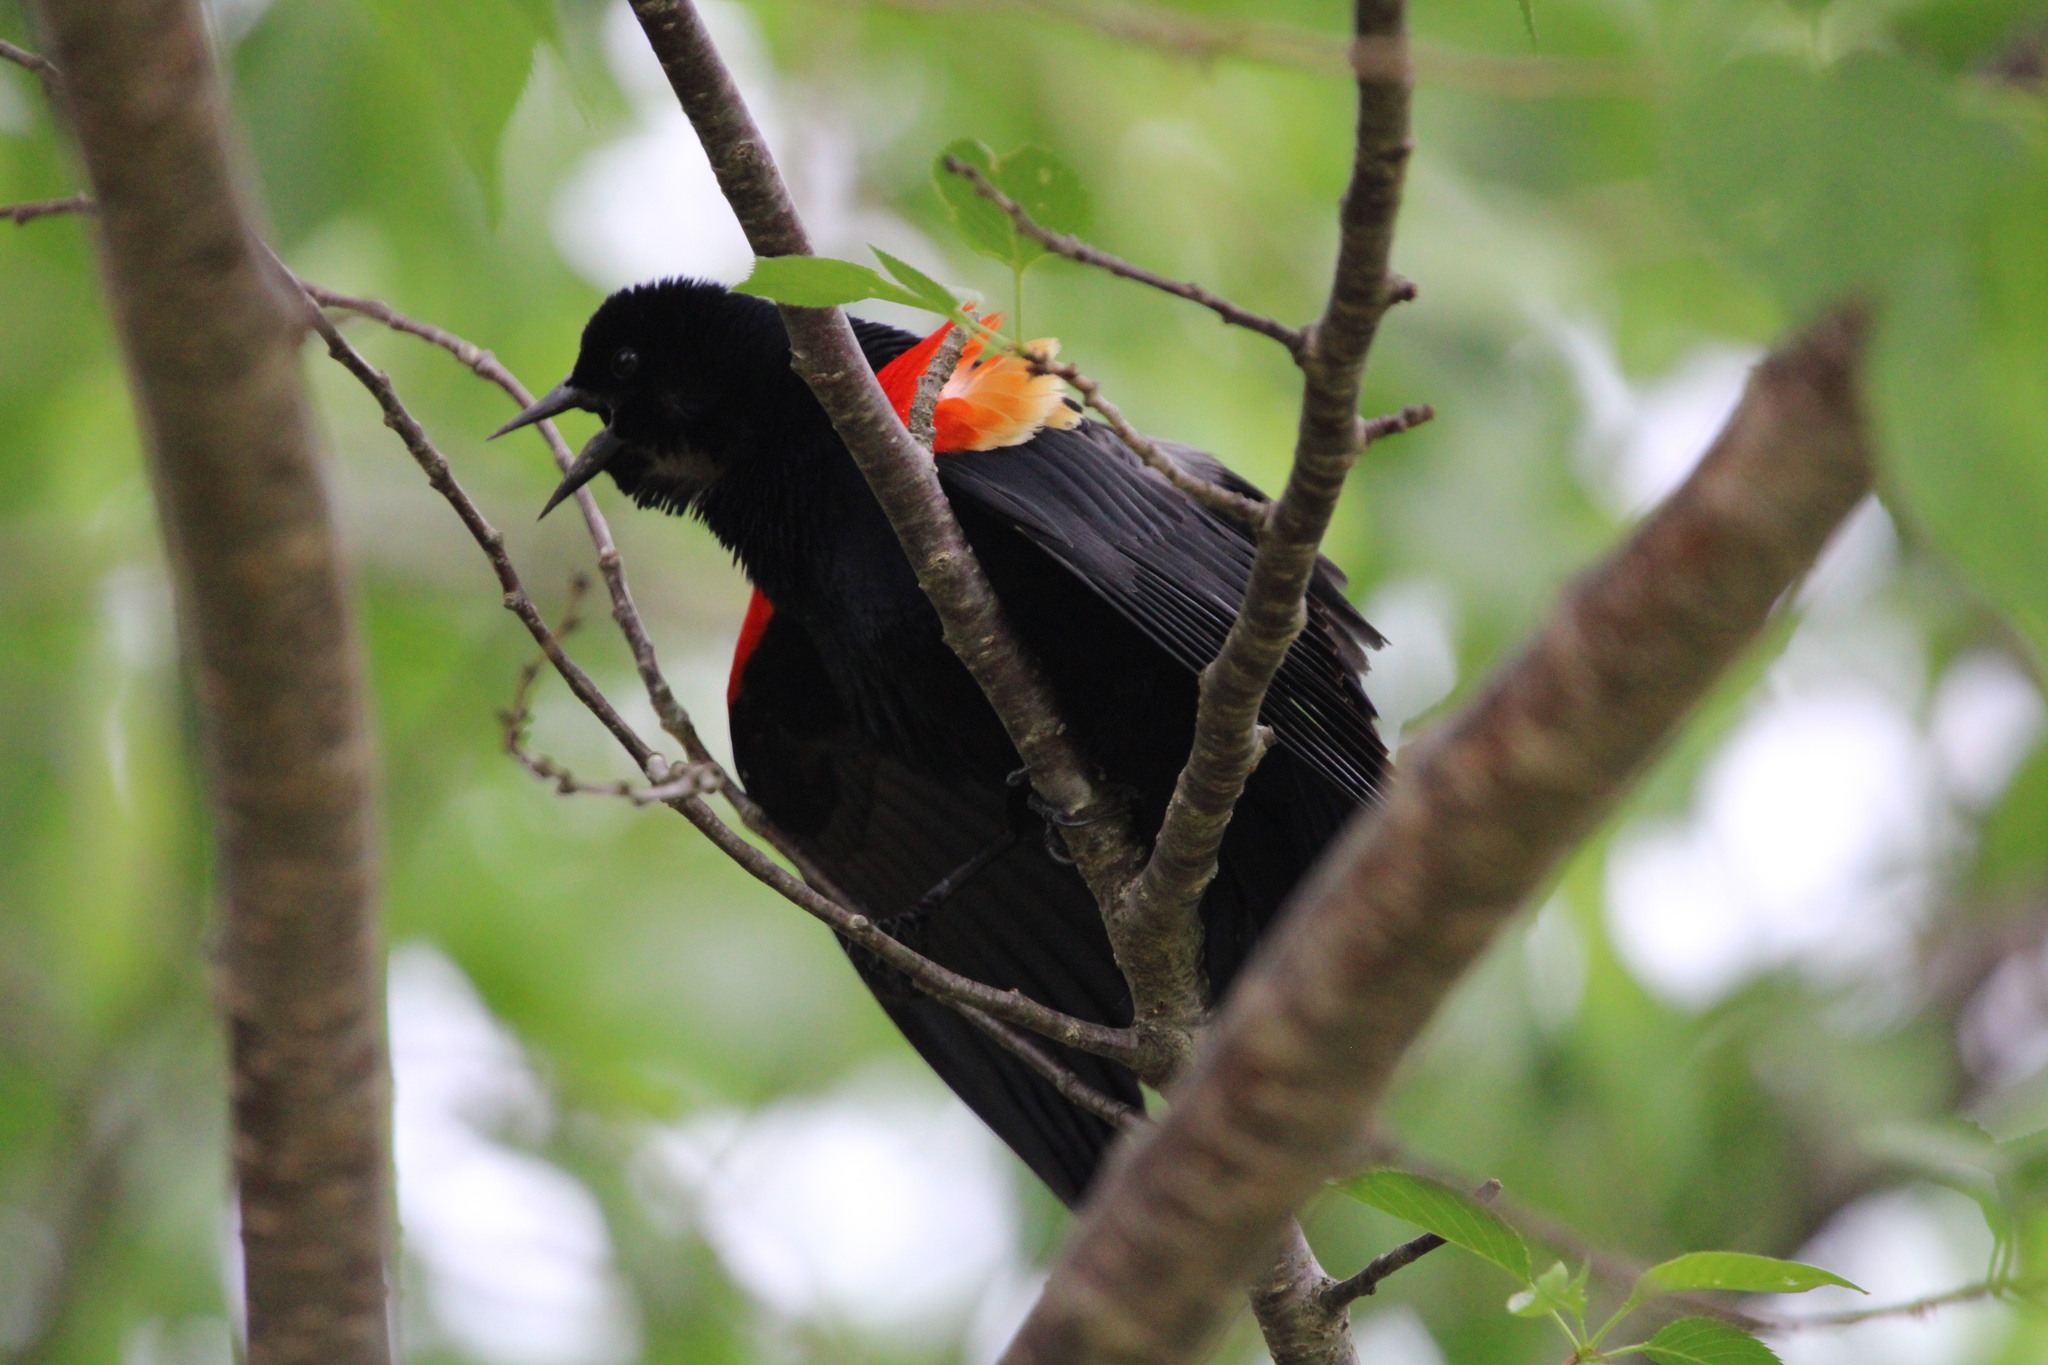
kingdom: Animalia
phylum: Chordata
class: Aves
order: Passeriformes
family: Icteridae
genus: Agelaius
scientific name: Agelaius phoeniceus
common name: Red-winged blackbird
